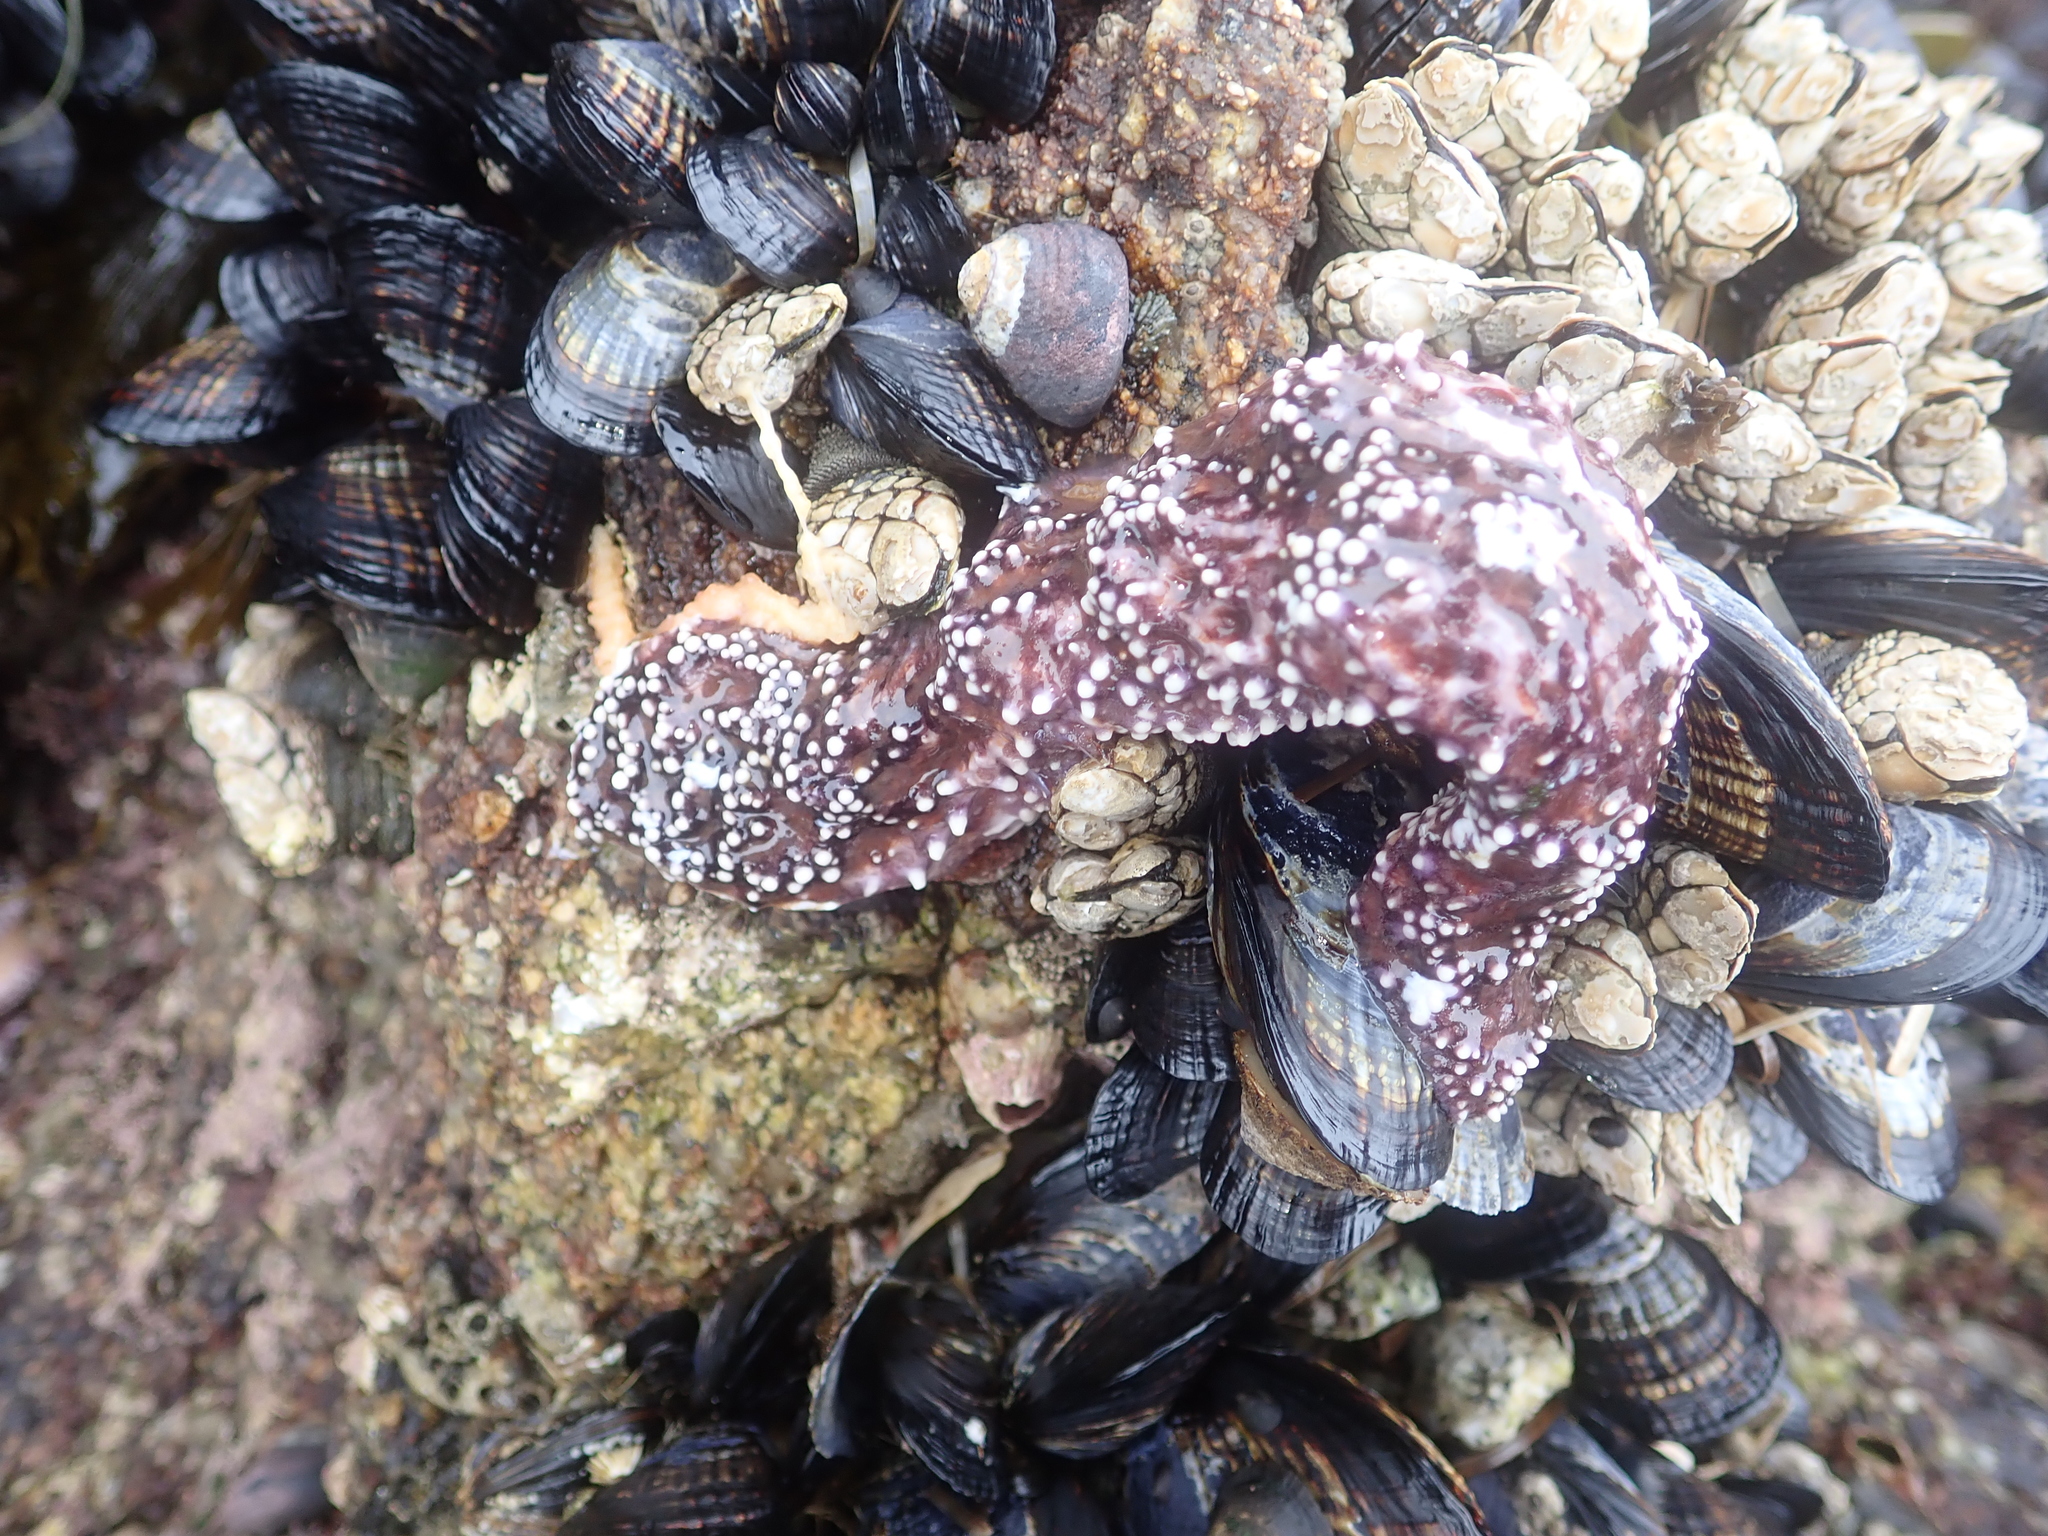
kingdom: Animalia
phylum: Echinodermata
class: Asteroidea
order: Forcipulatida
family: Asteriidae
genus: Pisaster
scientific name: Pisaster ochraceus
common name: Ochre stars
